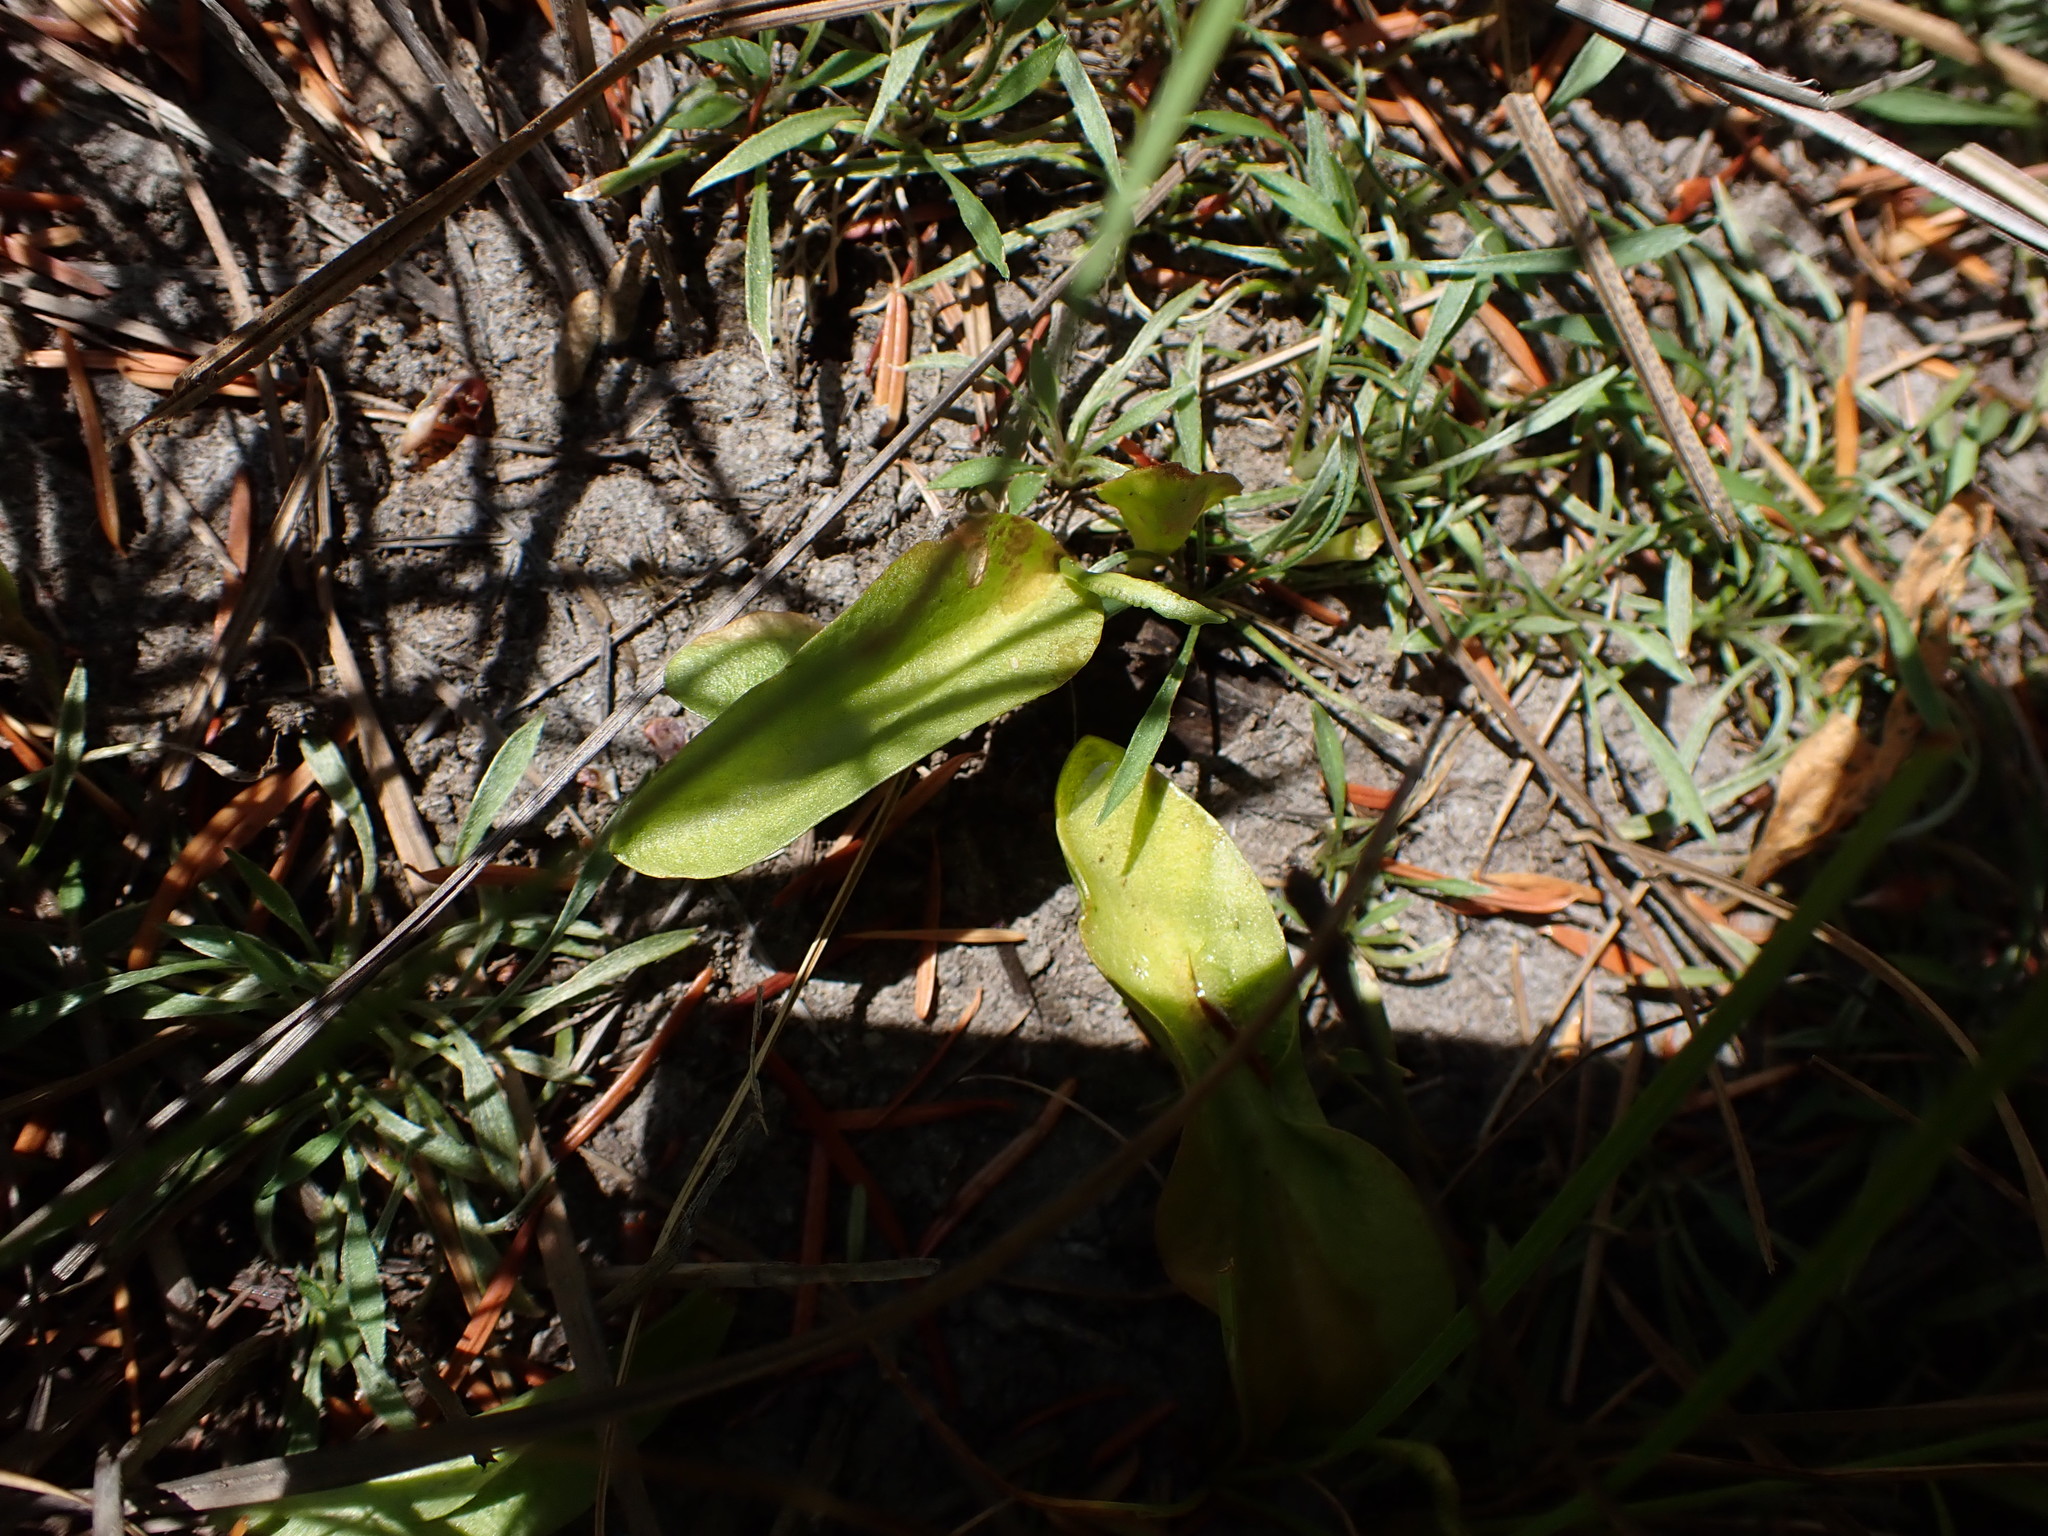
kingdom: Plantae
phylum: Tracheophyta
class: Polypodiopsida
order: Ophioglossales
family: Ophioglossaceae
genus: Ophioglossum
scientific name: Ophioglossum pusillum
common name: Northern adder's-tongue
